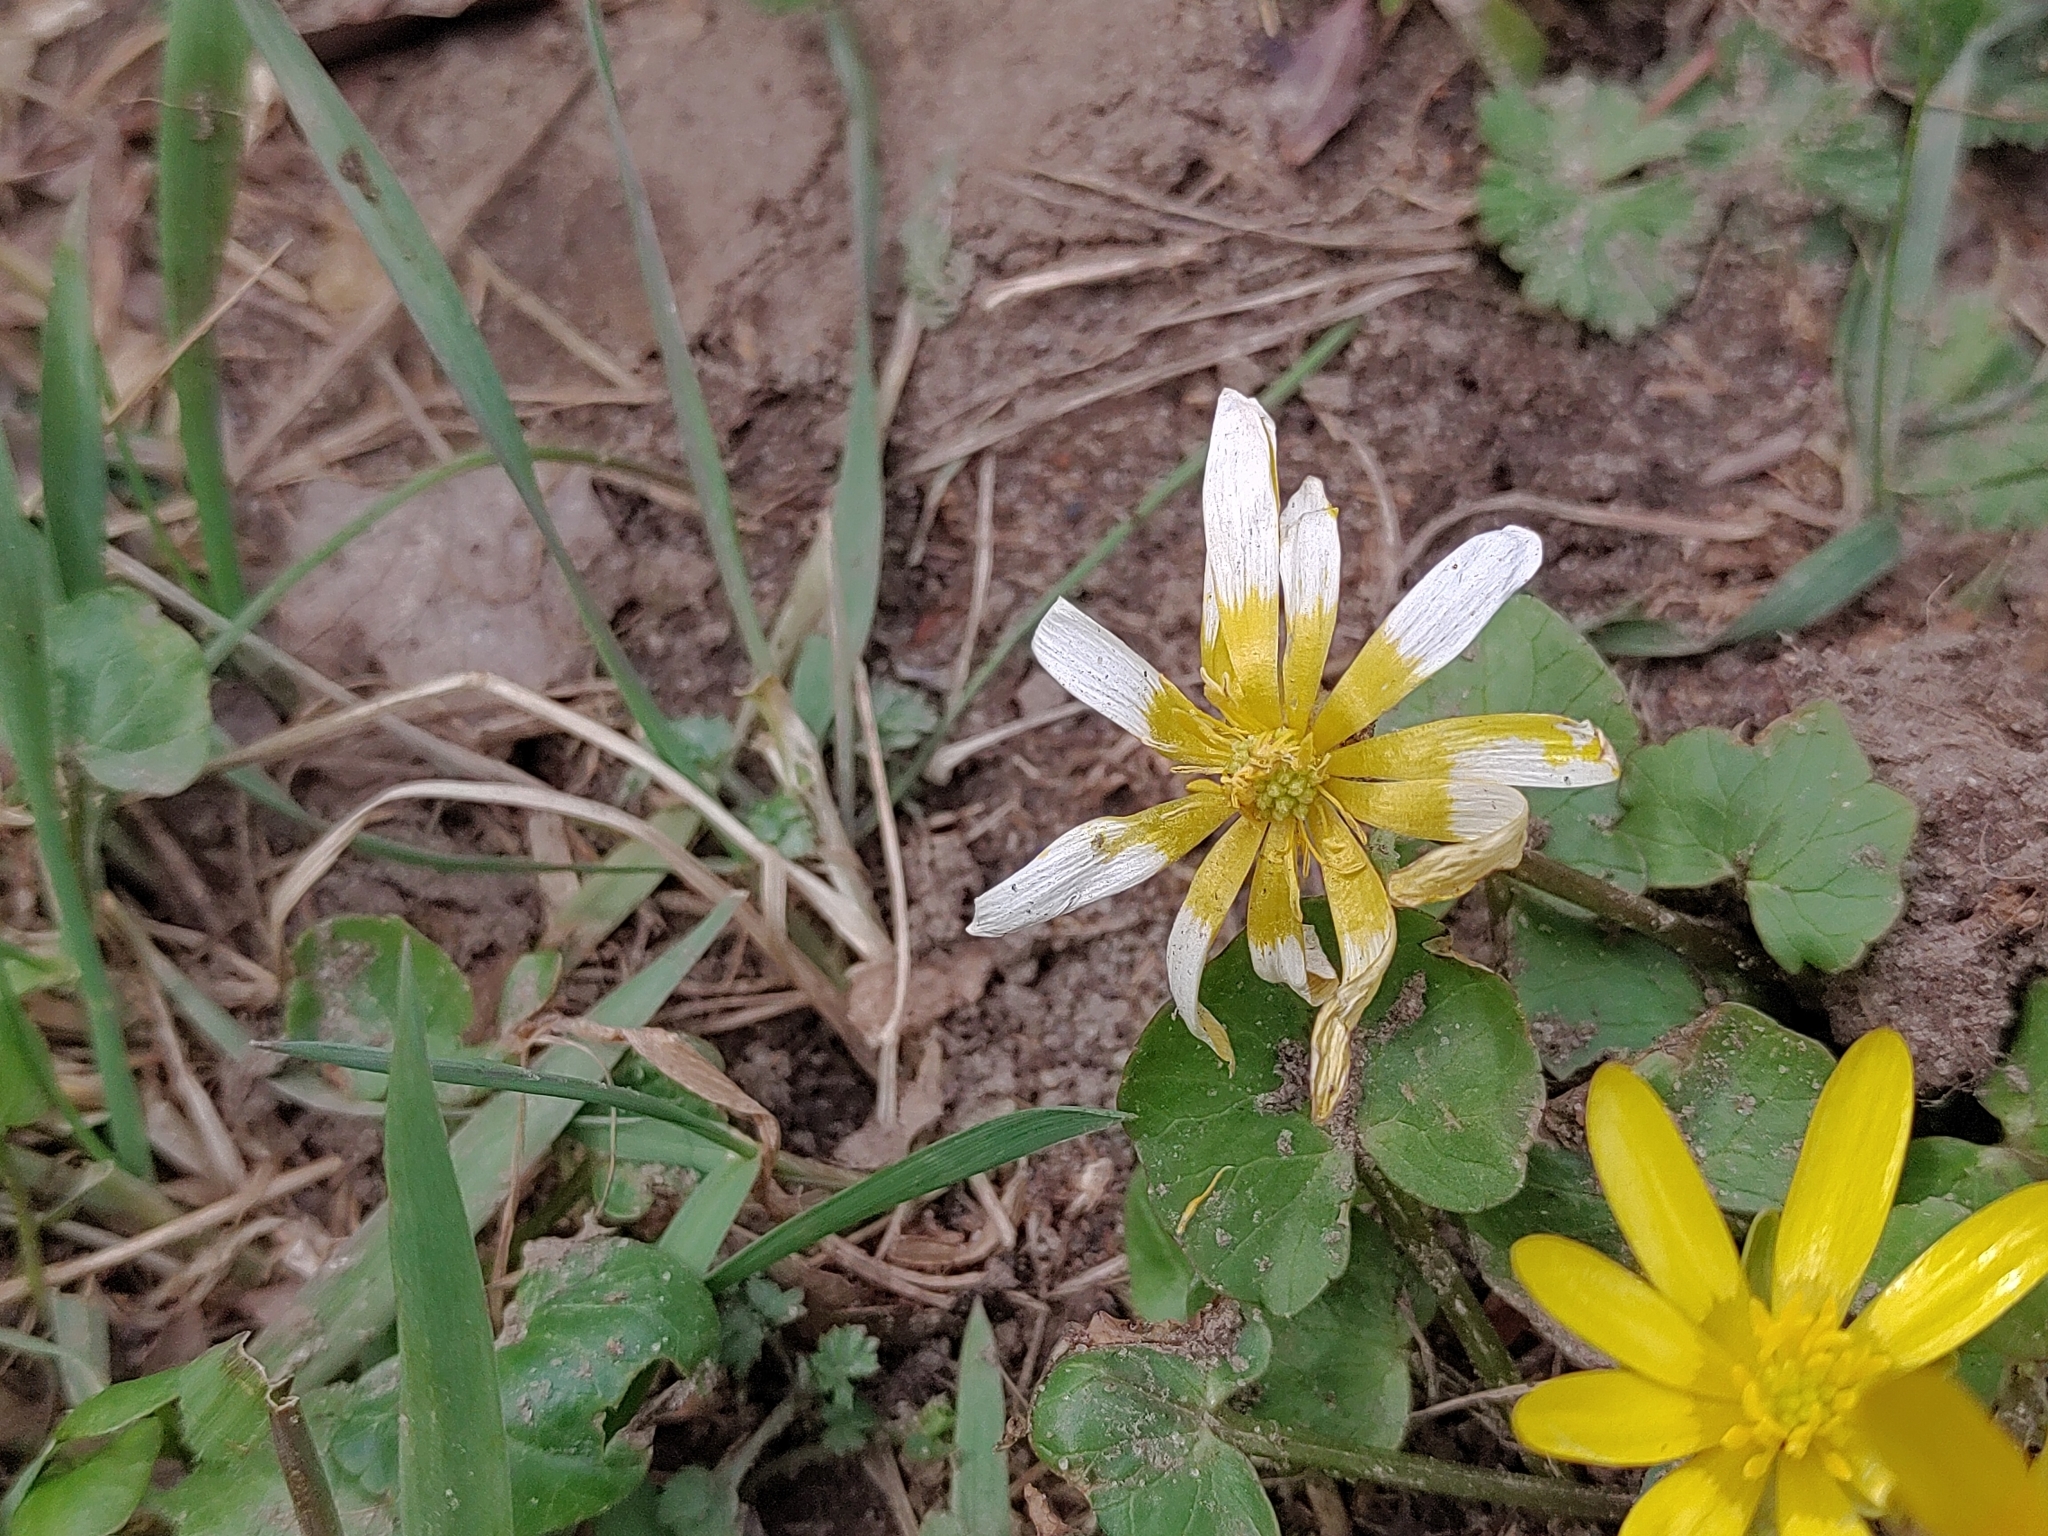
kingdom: Plantae
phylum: Tracheophyta
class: Magnoliopsida
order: Ranunculales
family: Ranunculaceae
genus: Ficaria
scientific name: Ficaria verna
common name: Lesser celandine
